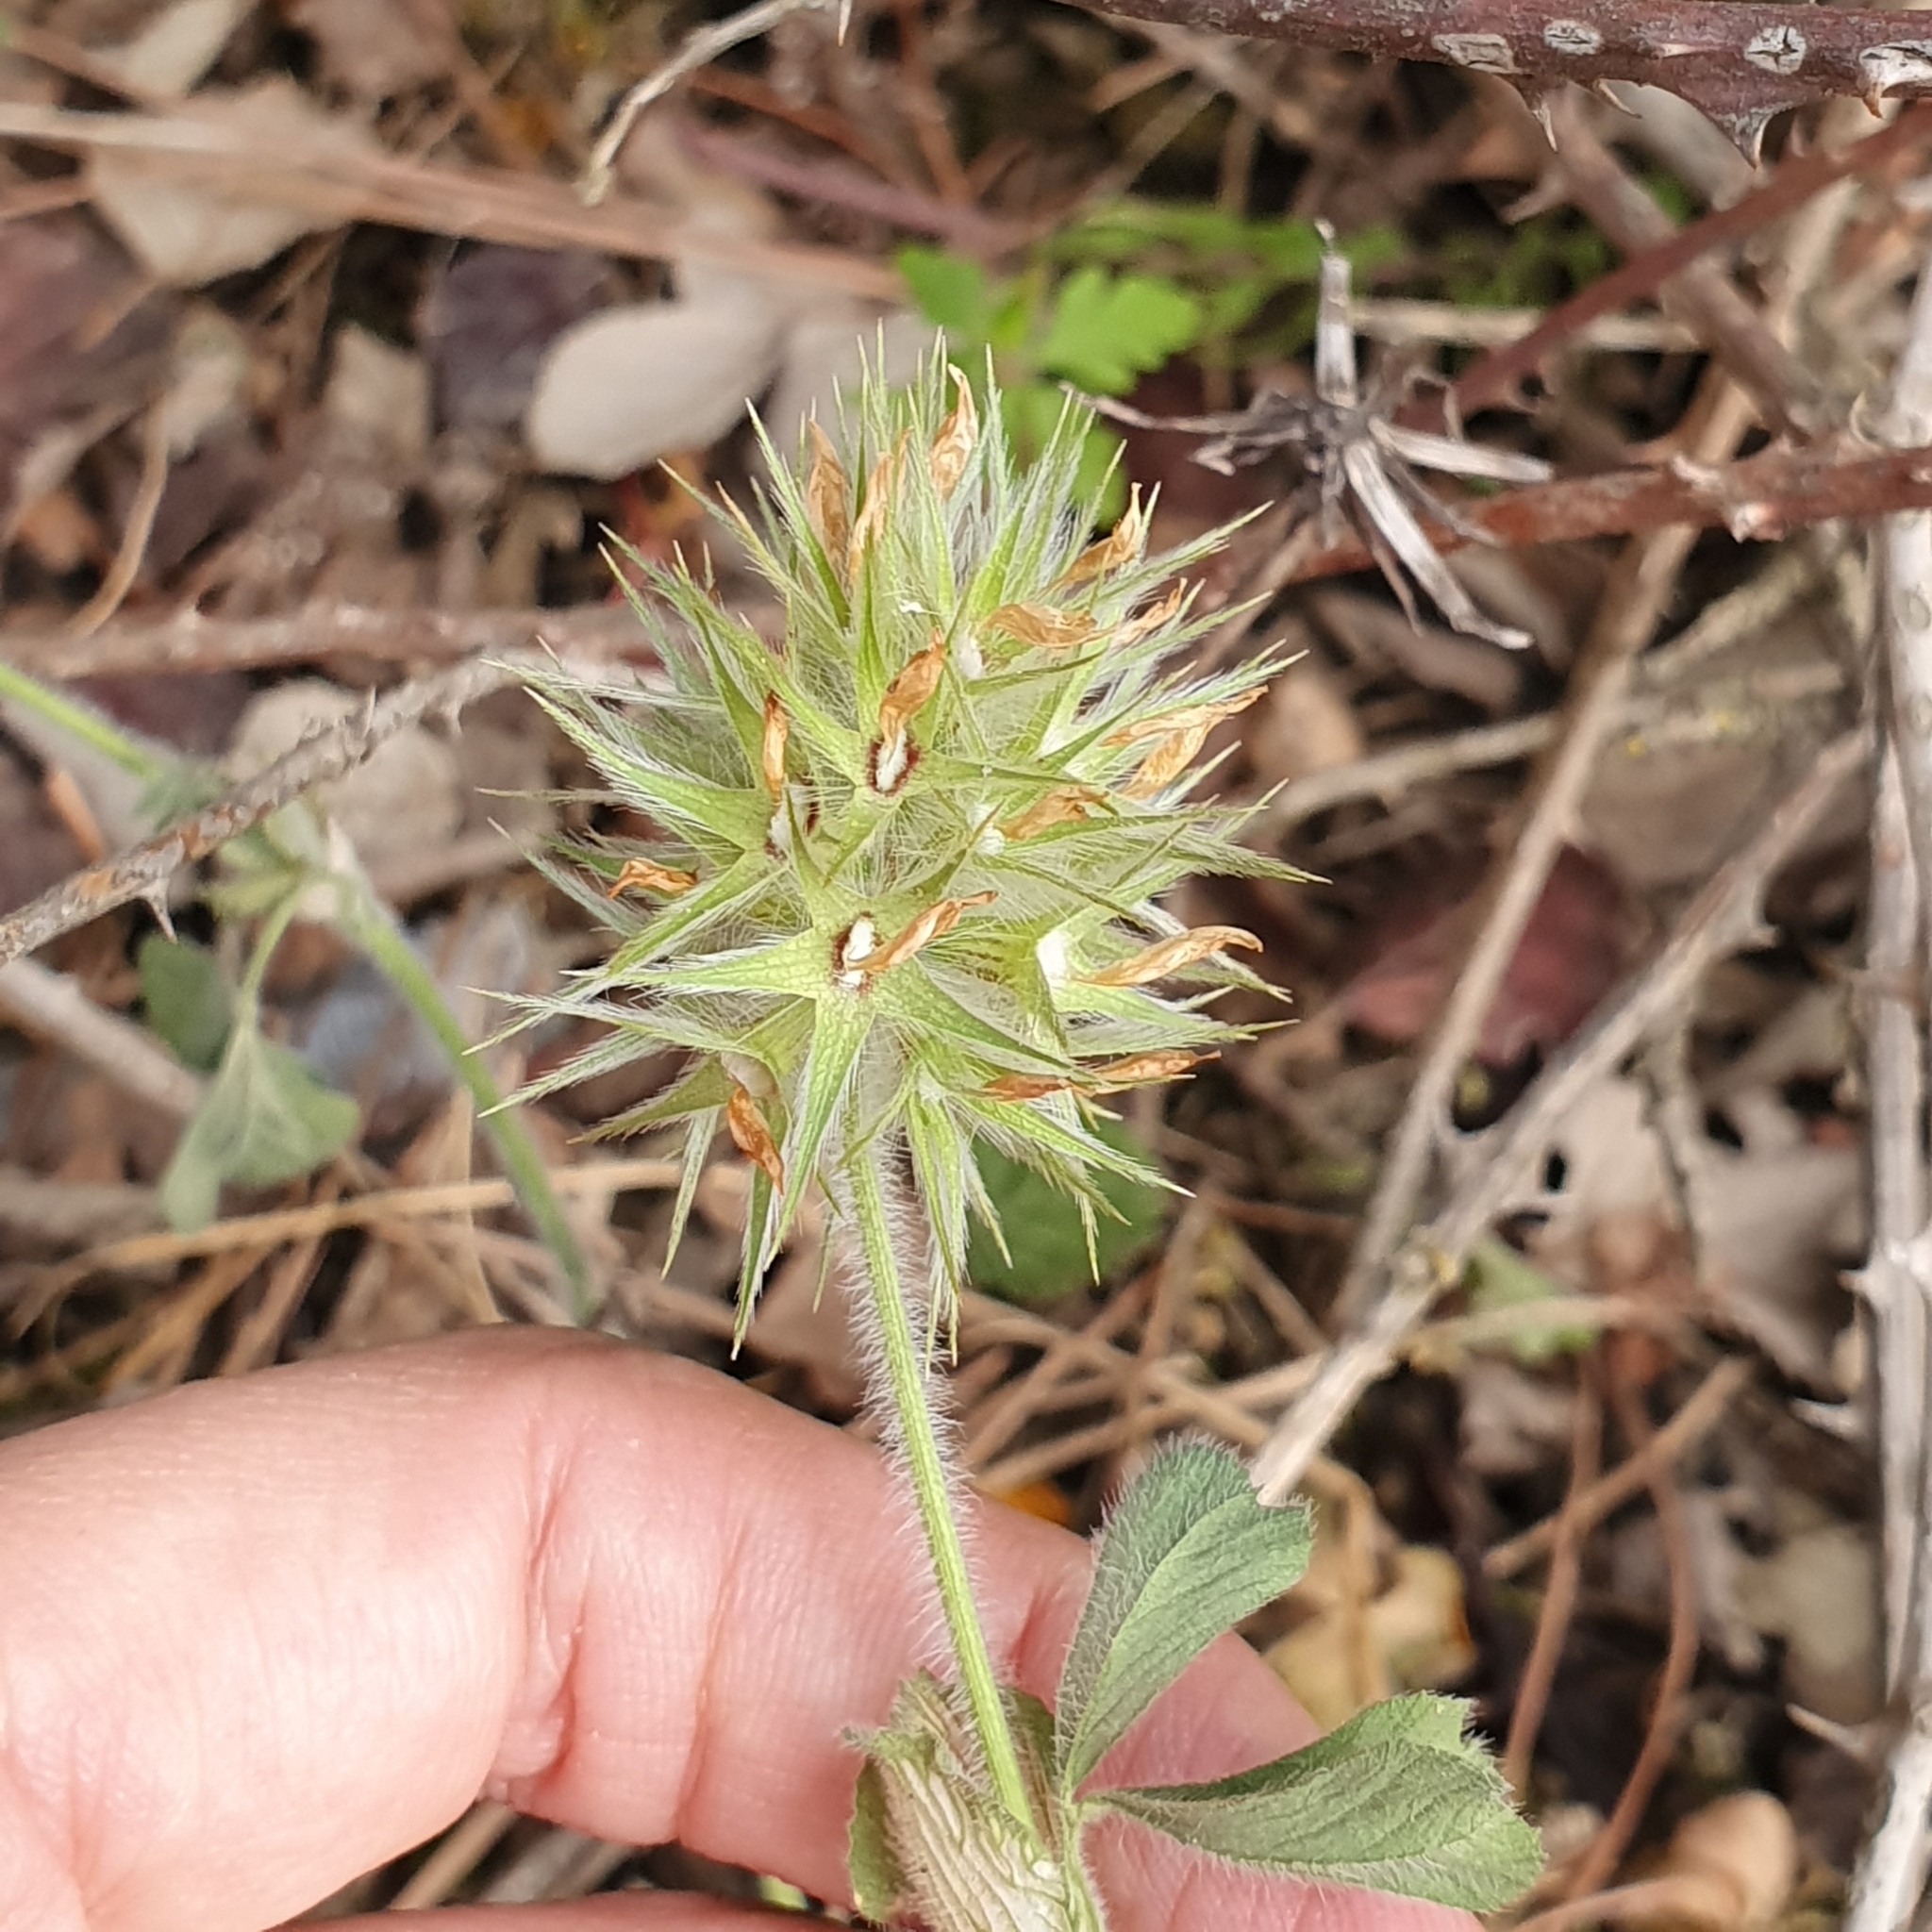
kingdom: Plantae
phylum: Tracheophyta
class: Magnoliopsida
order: Fabales
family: Fabaceae
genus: Trifolium
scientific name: Trifolium stellatum
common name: Starry clover
